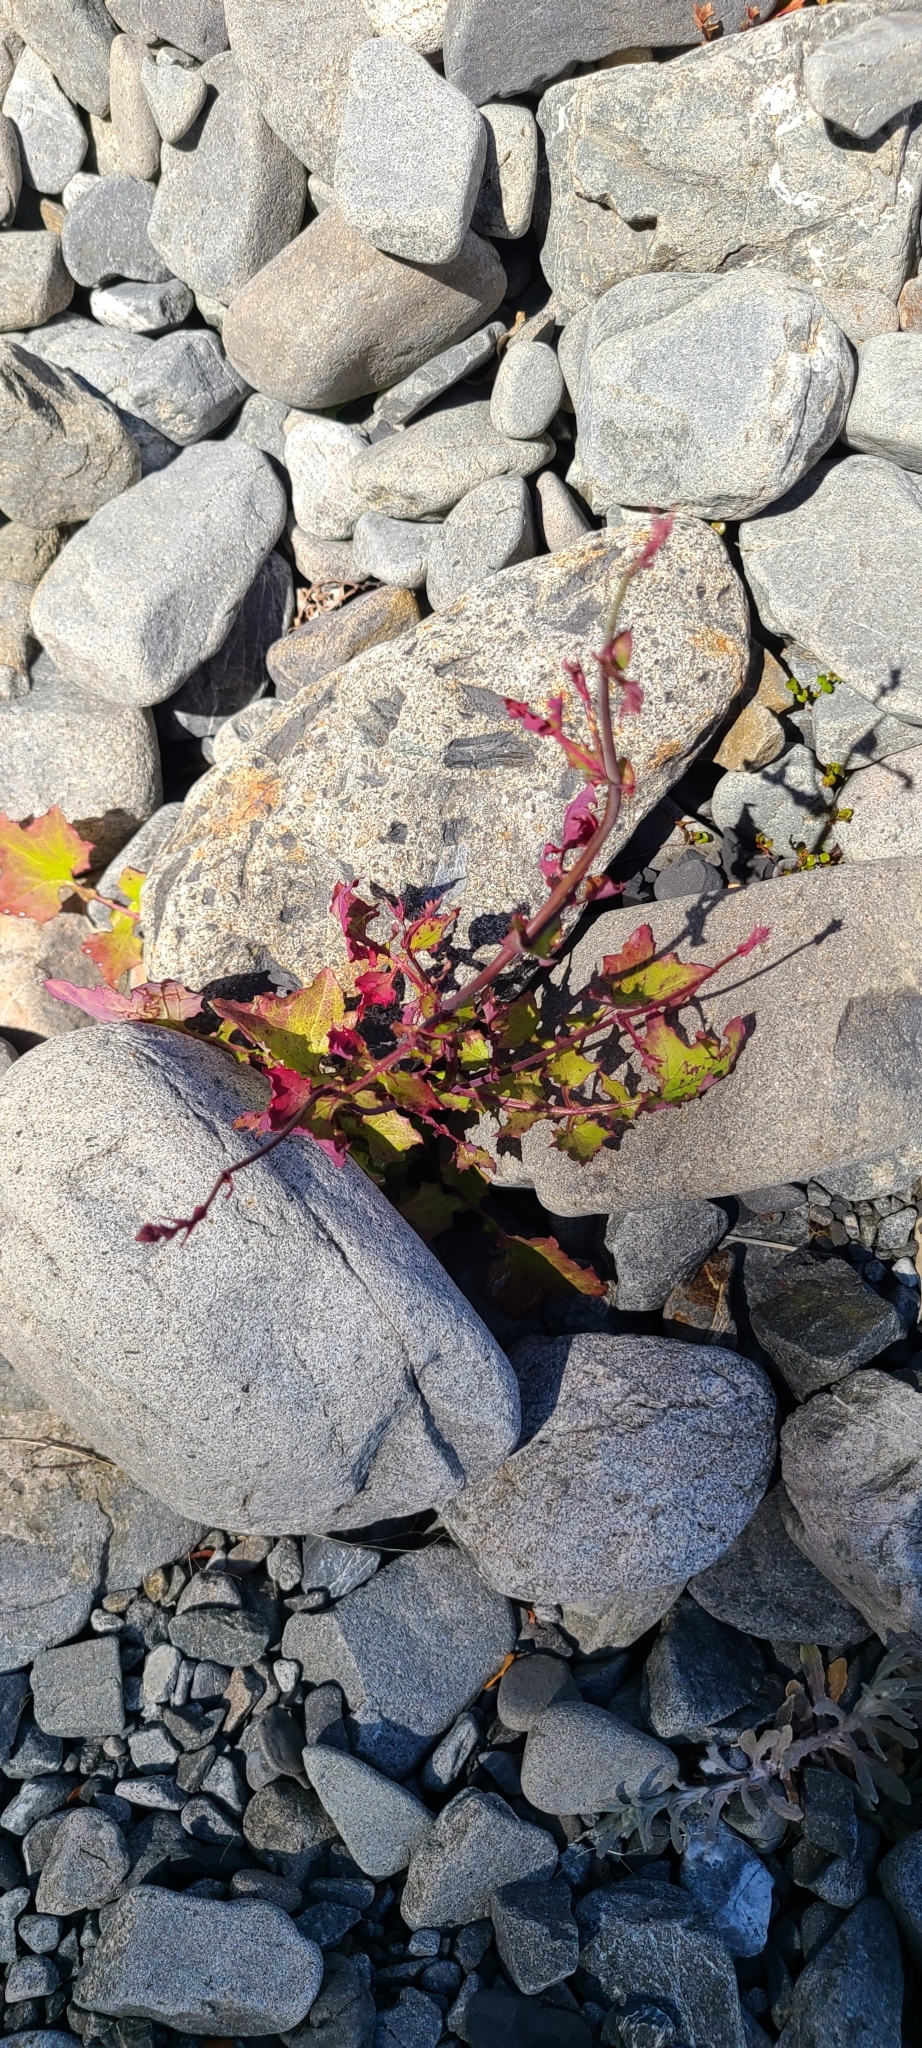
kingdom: Plantae
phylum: Tracheophyta
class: Magnoliopsida
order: Asterales
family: Asteraceae
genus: Mycelis
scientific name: Mycelis muralis
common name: Wall lettuce
